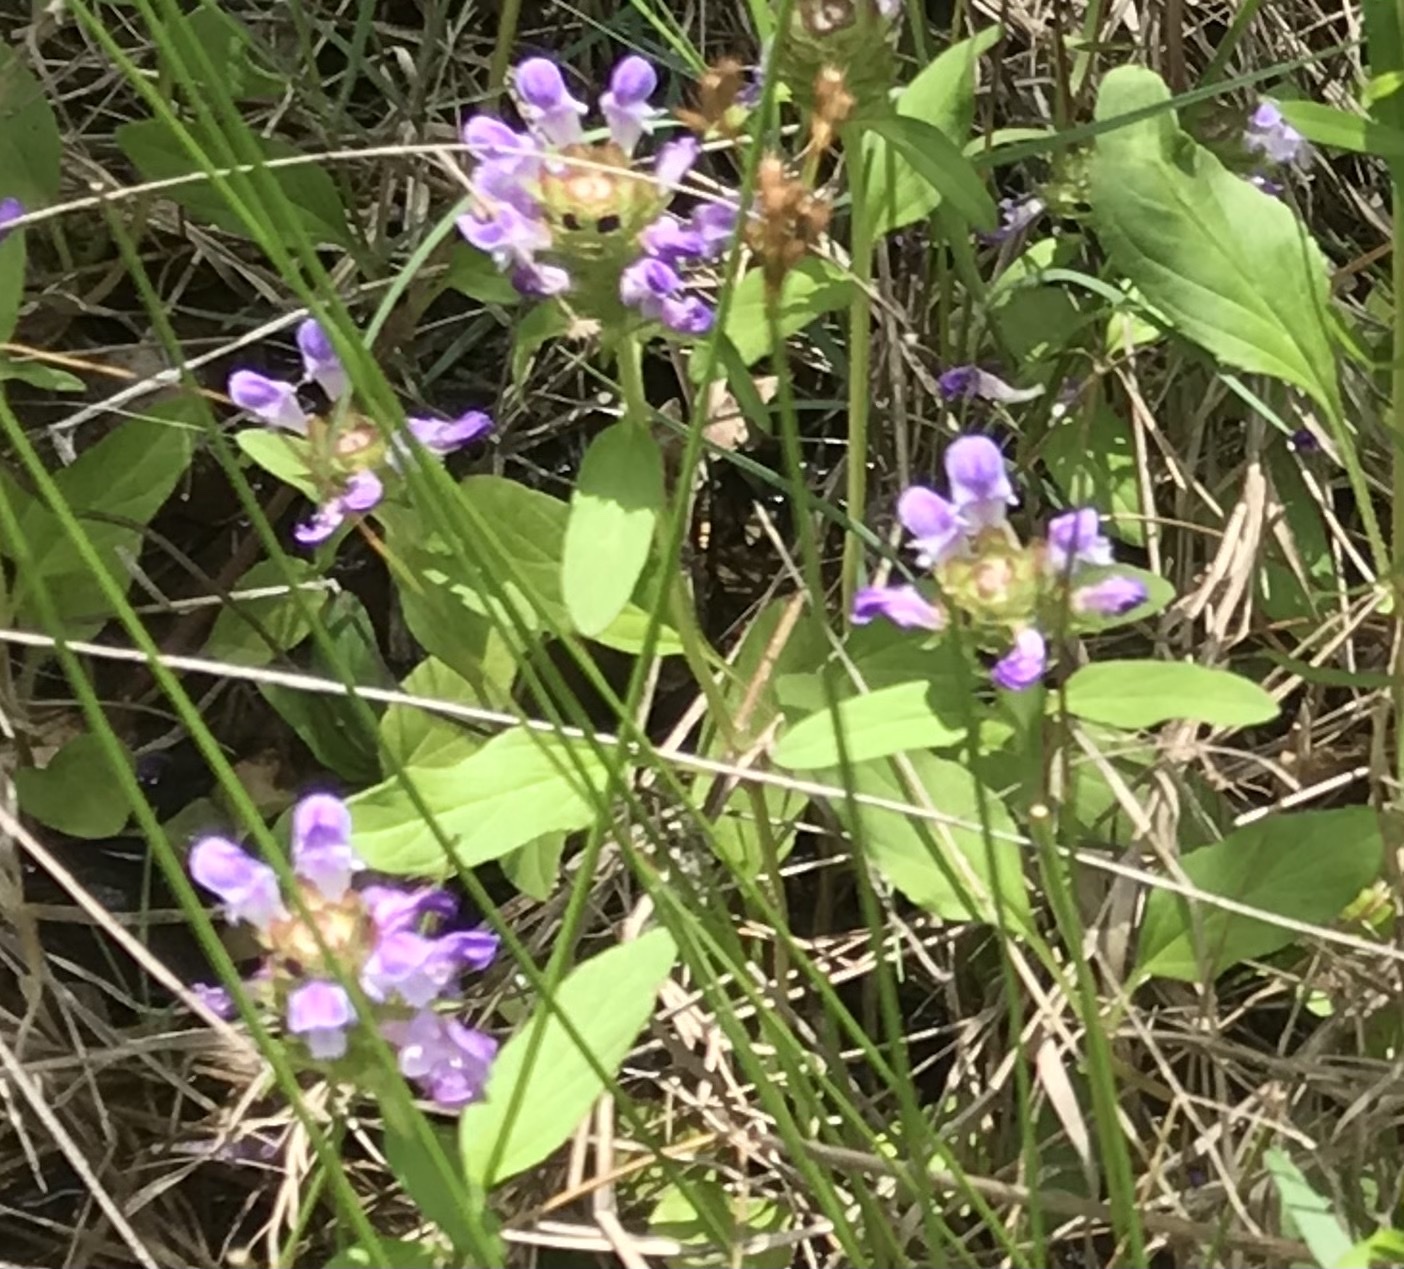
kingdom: Plantae
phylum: Tracheophyta
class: Magnoliopsida
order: Lamiales
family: Lamiaceae
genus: Prunella
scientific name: Prunella vulgaris
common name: Heal-all
